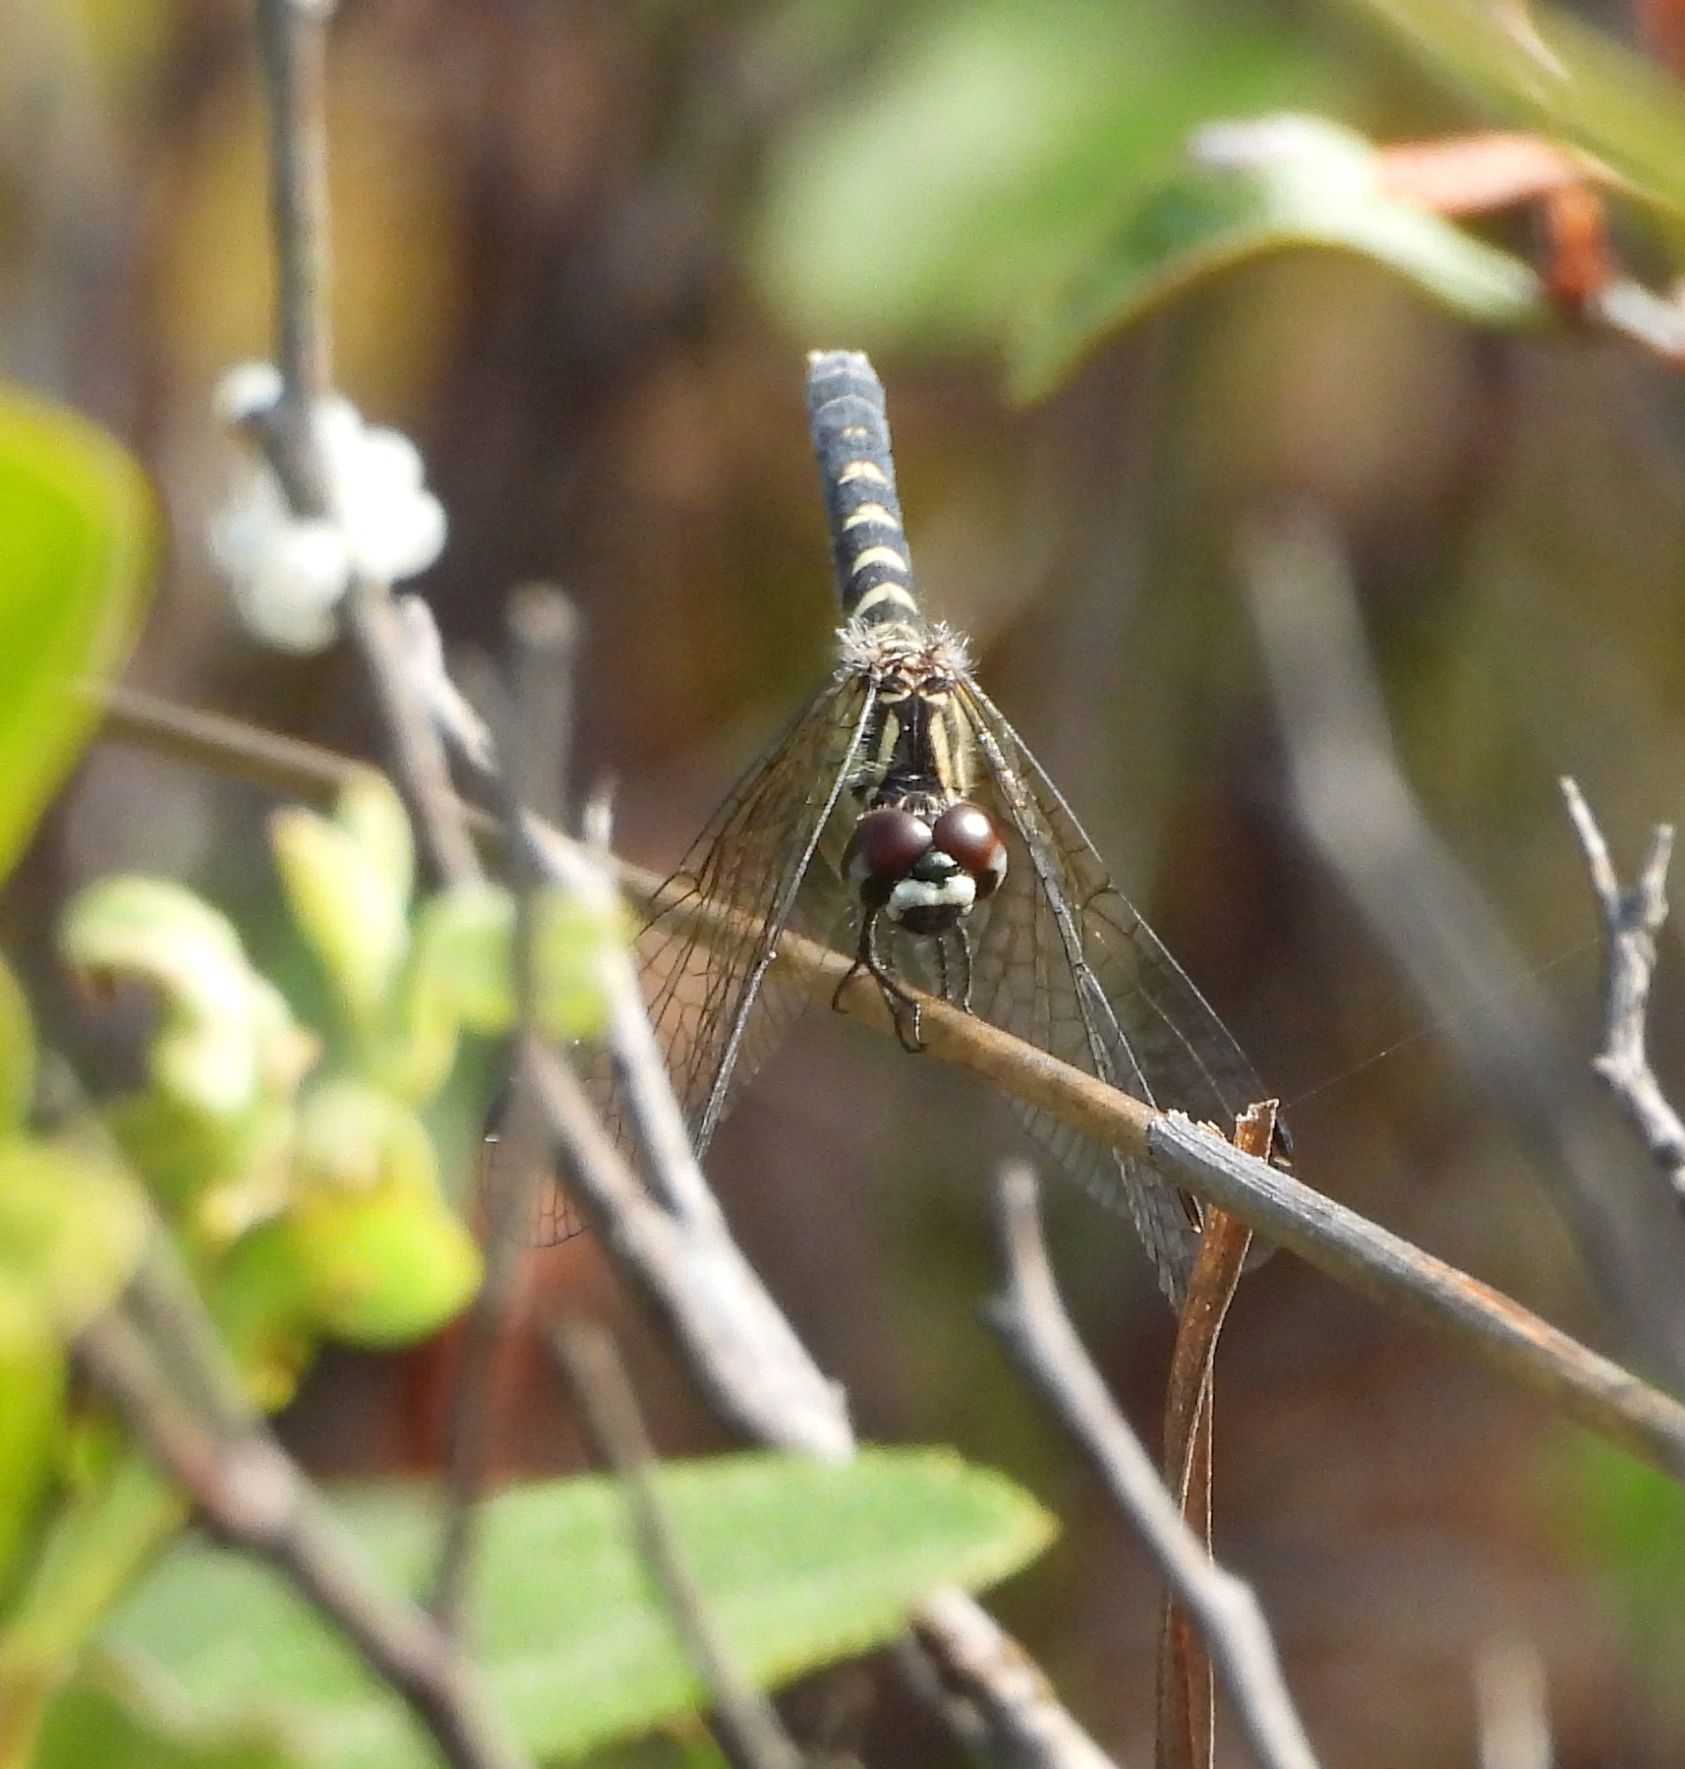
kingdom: Animalia
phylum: Arthropoda
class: Insecta
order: Odonata
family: Libellulidae
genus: Nannothemis
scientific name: Nannothemis bella
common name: Elfin skimmer
